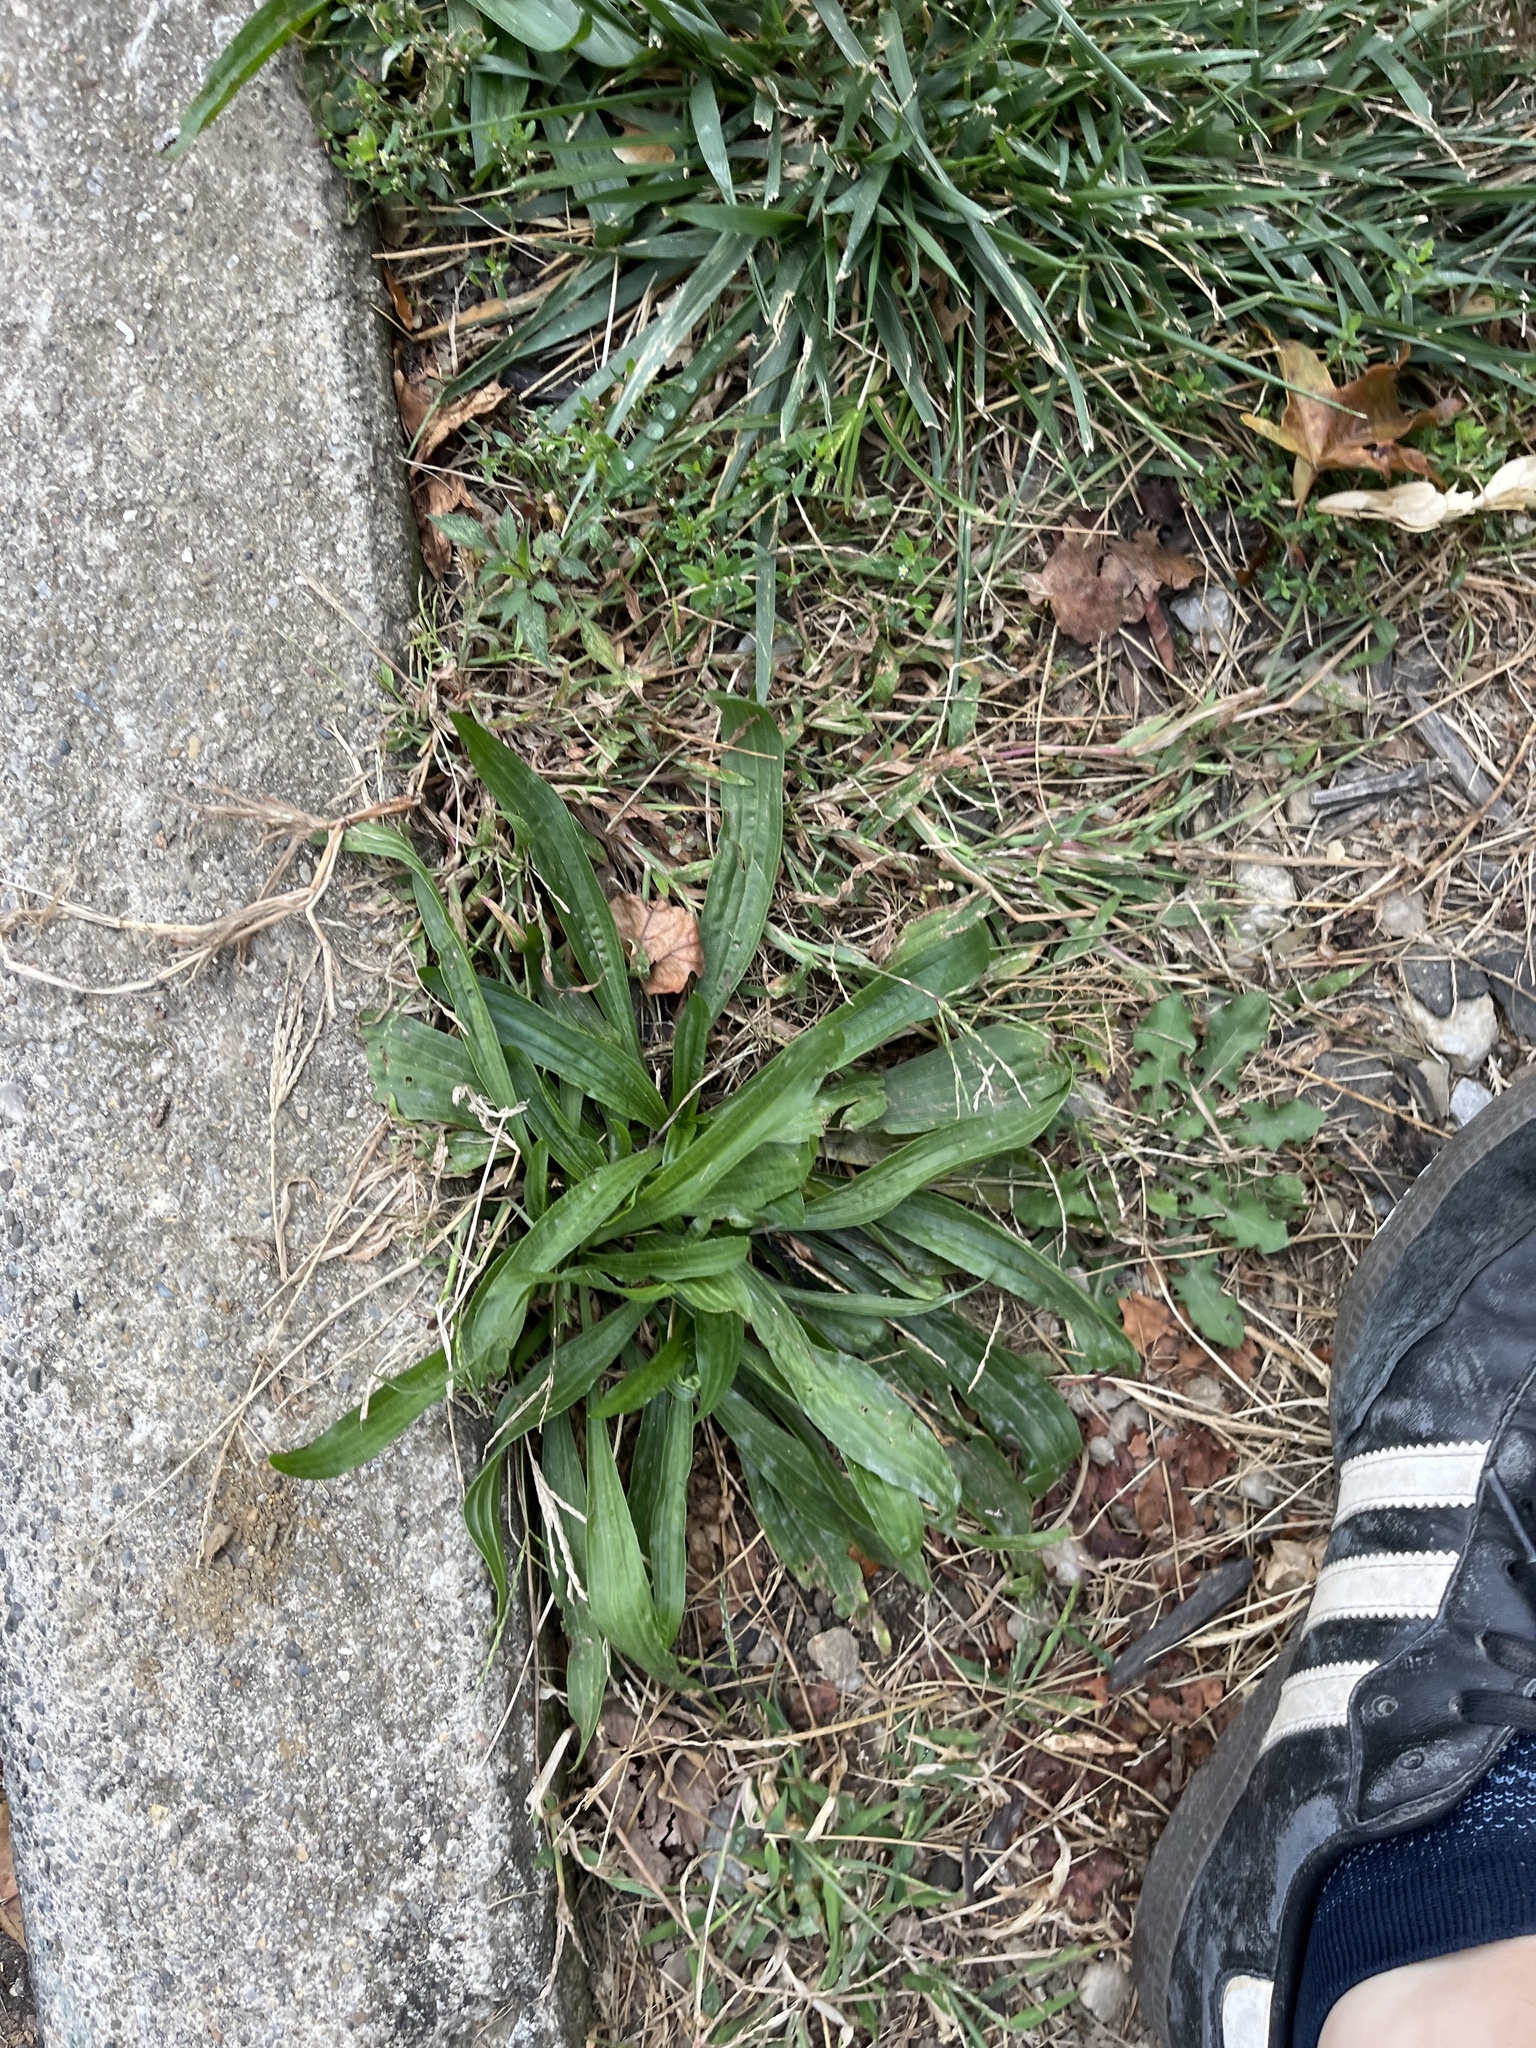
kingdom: Plantae
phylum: Tracheophyta
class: Magnoliopsida
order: Lamiales
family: Plantaginaceae
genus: Plantago
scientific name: Plantago lanceolata
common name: Ribwort plantain
